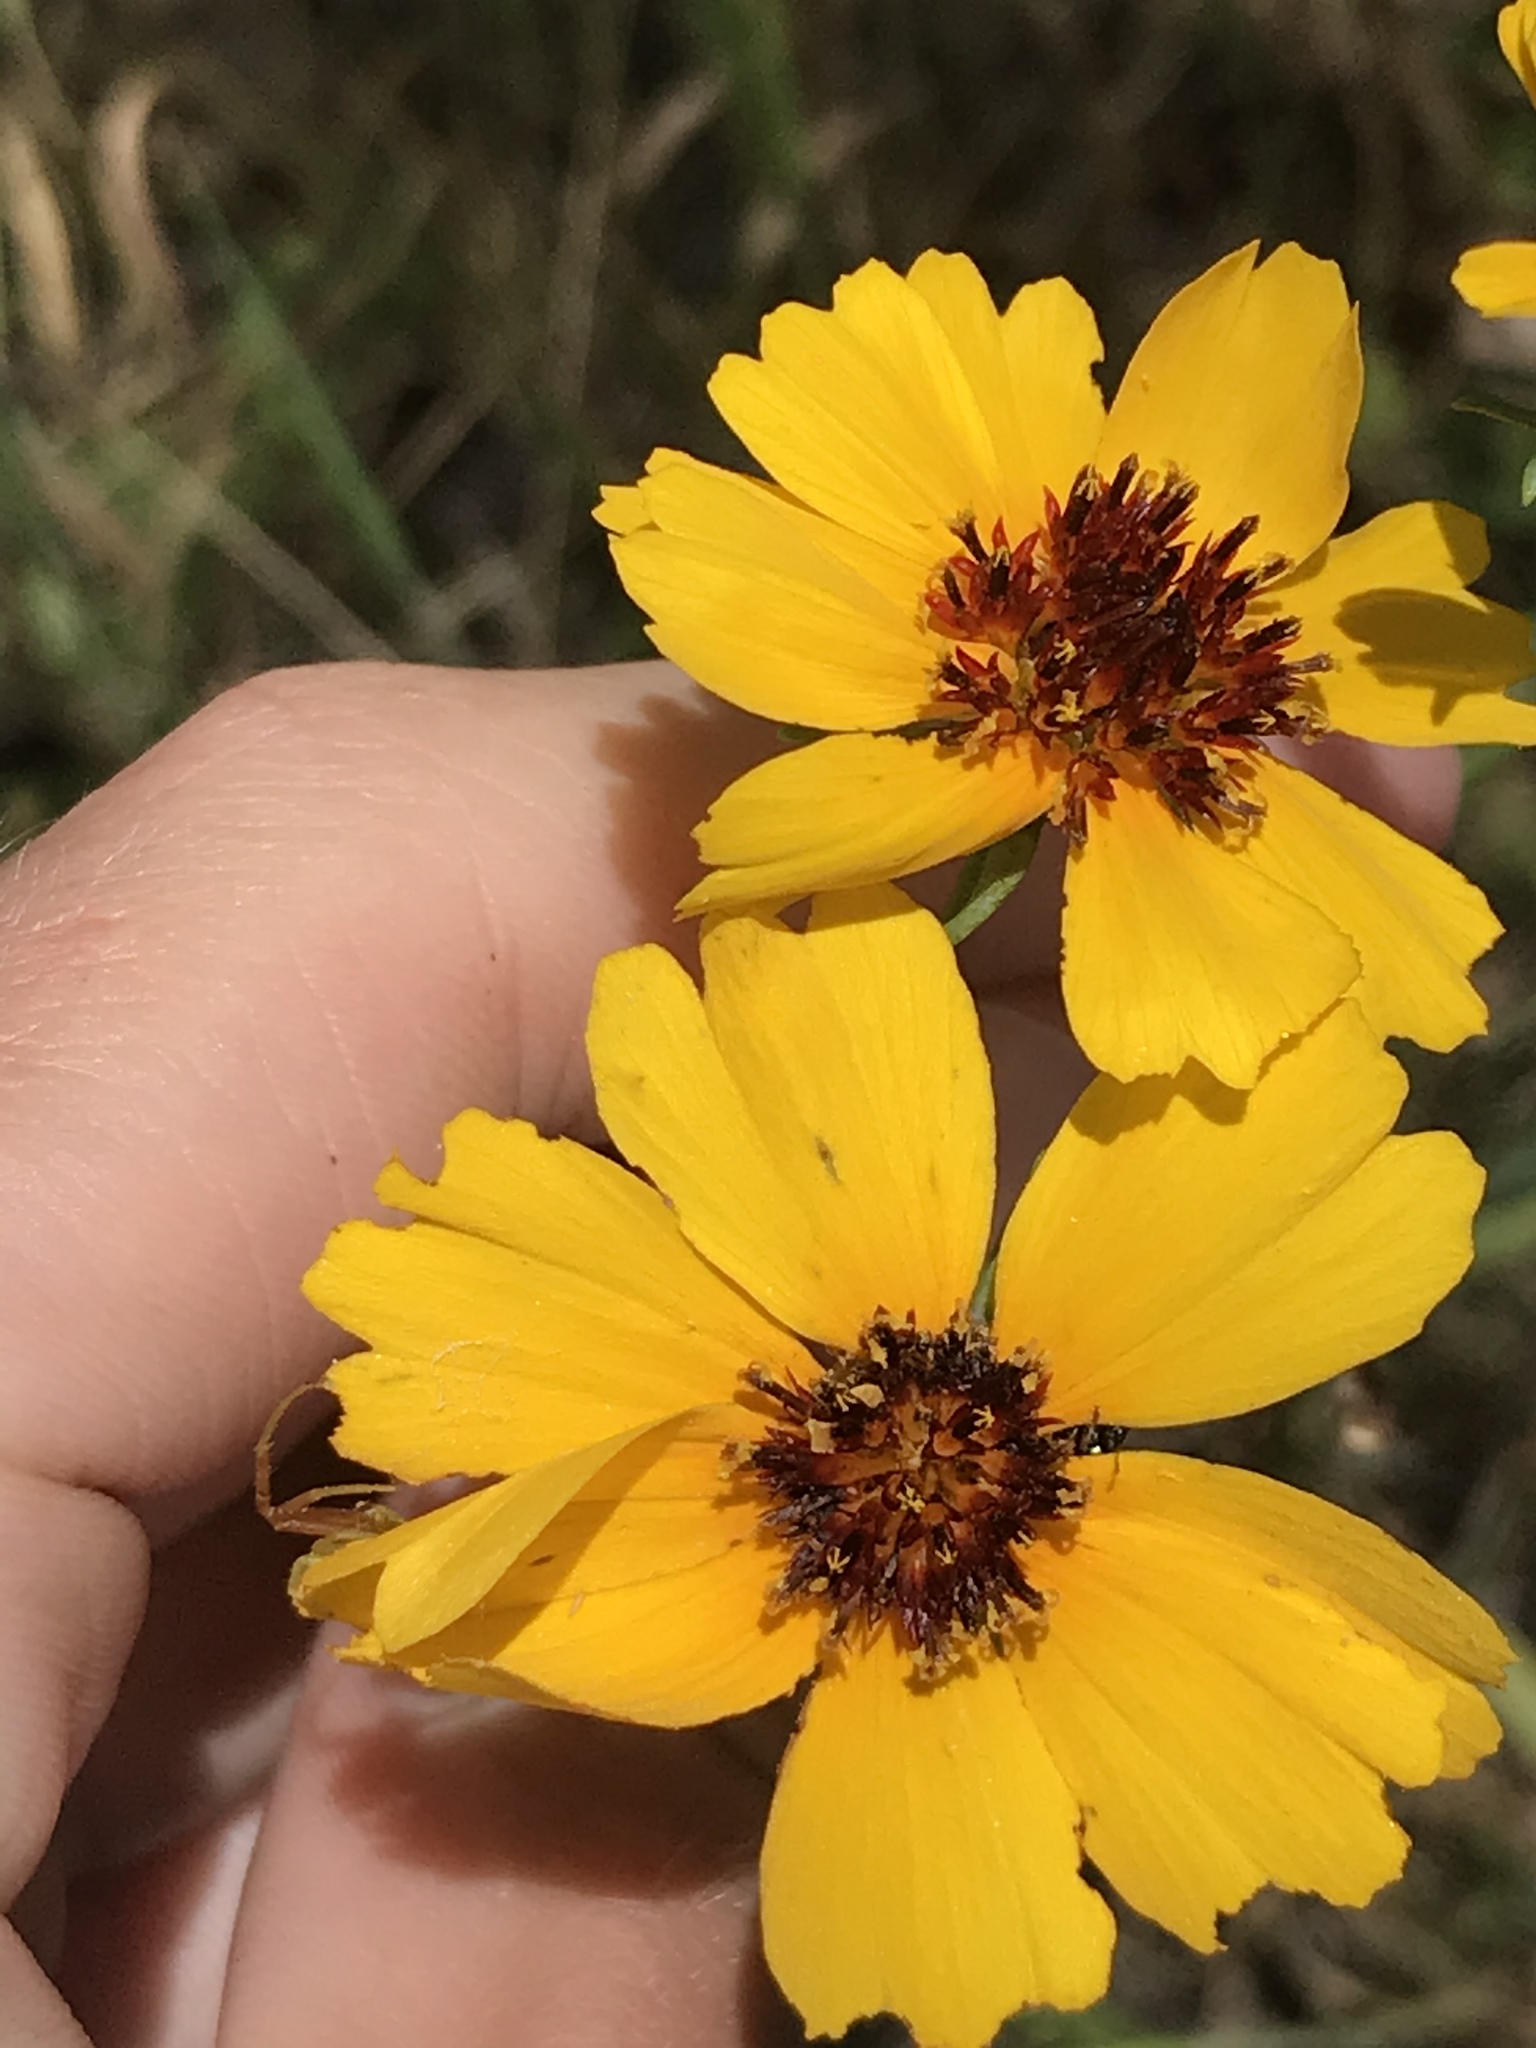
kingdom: Plantae
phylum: Tracheophyta
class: Magnoliopsida
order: Asterales
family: Asteraceae
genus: Thelesperma
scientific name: Thelesperma filifolium
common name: Stiff greenthread
